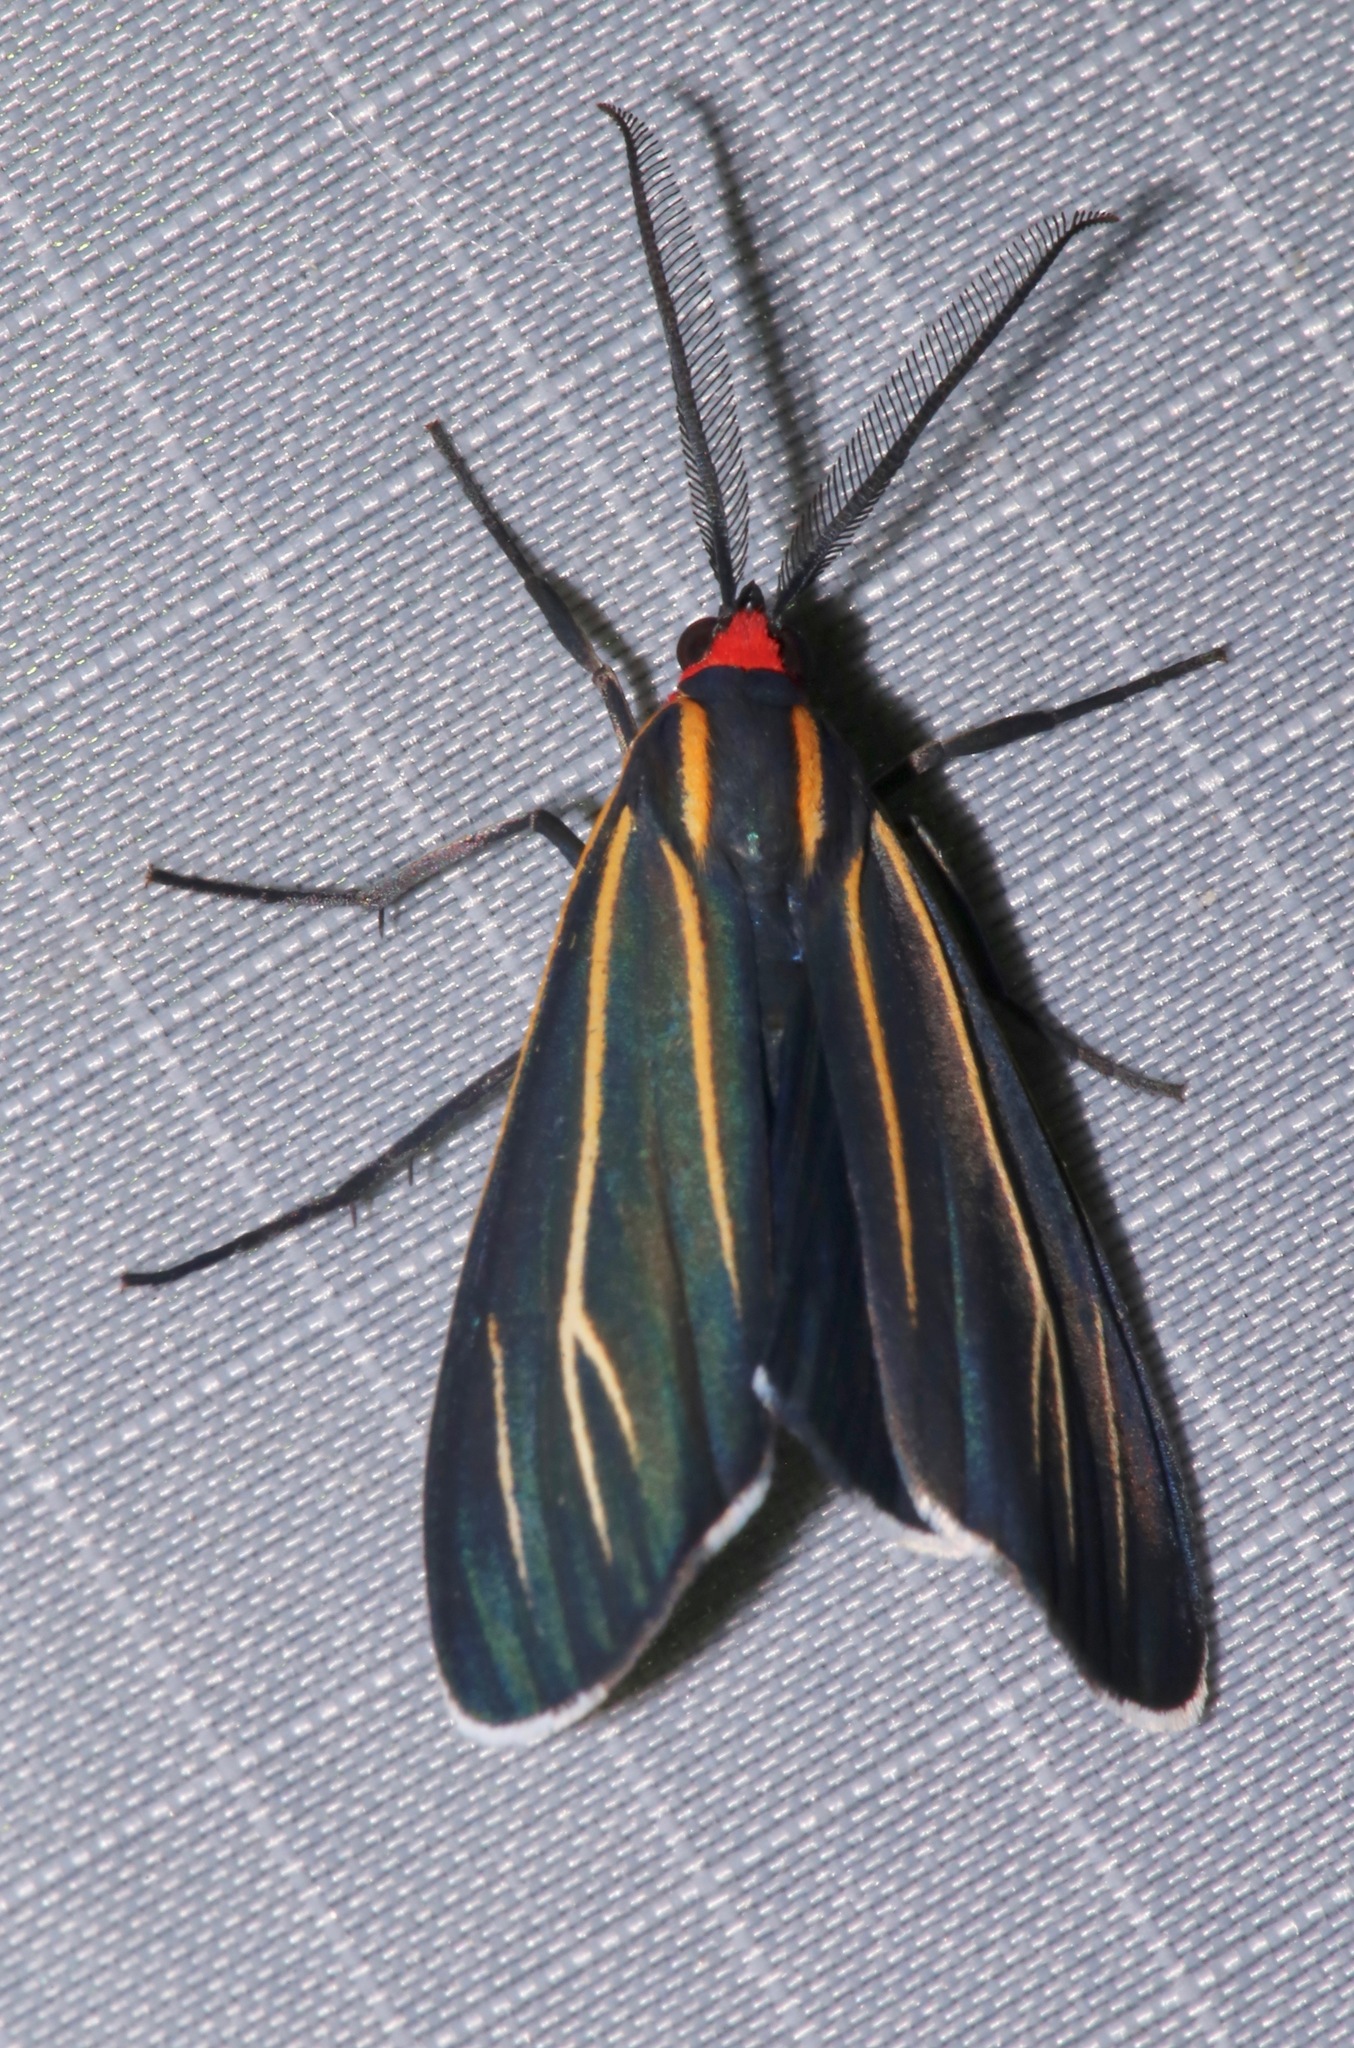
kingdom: Animalia
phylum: Arthropoda
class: Insecta
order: Lepidoptera
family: Erebidae
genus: Ctenucha
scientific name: Ctenucha venosa
